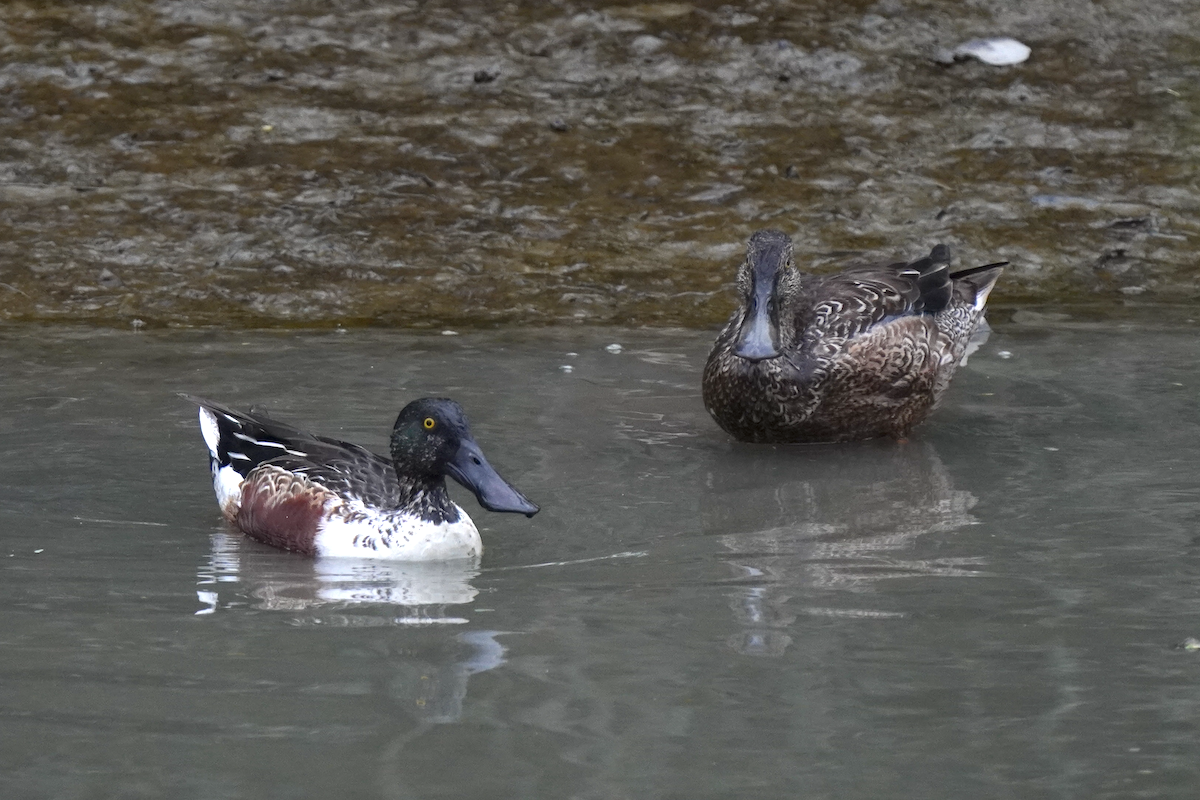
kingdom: Animalia
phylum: Chordata
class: Aves
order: Anseriformes
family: Anatidae
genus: Spatula
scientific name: Spatula clypeata
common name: Northern shoveler
